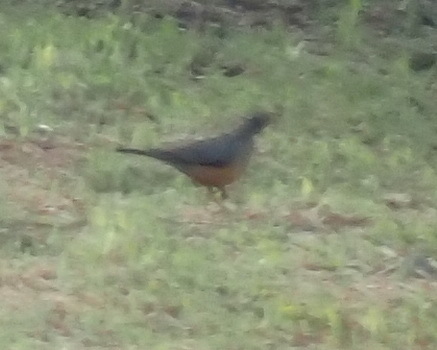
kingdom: Animalia
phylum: Chordata
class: Aves
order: Passeriformes
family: Turdidae
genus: Turdus
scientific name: Turdus olivaceus
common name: Olive thrush
